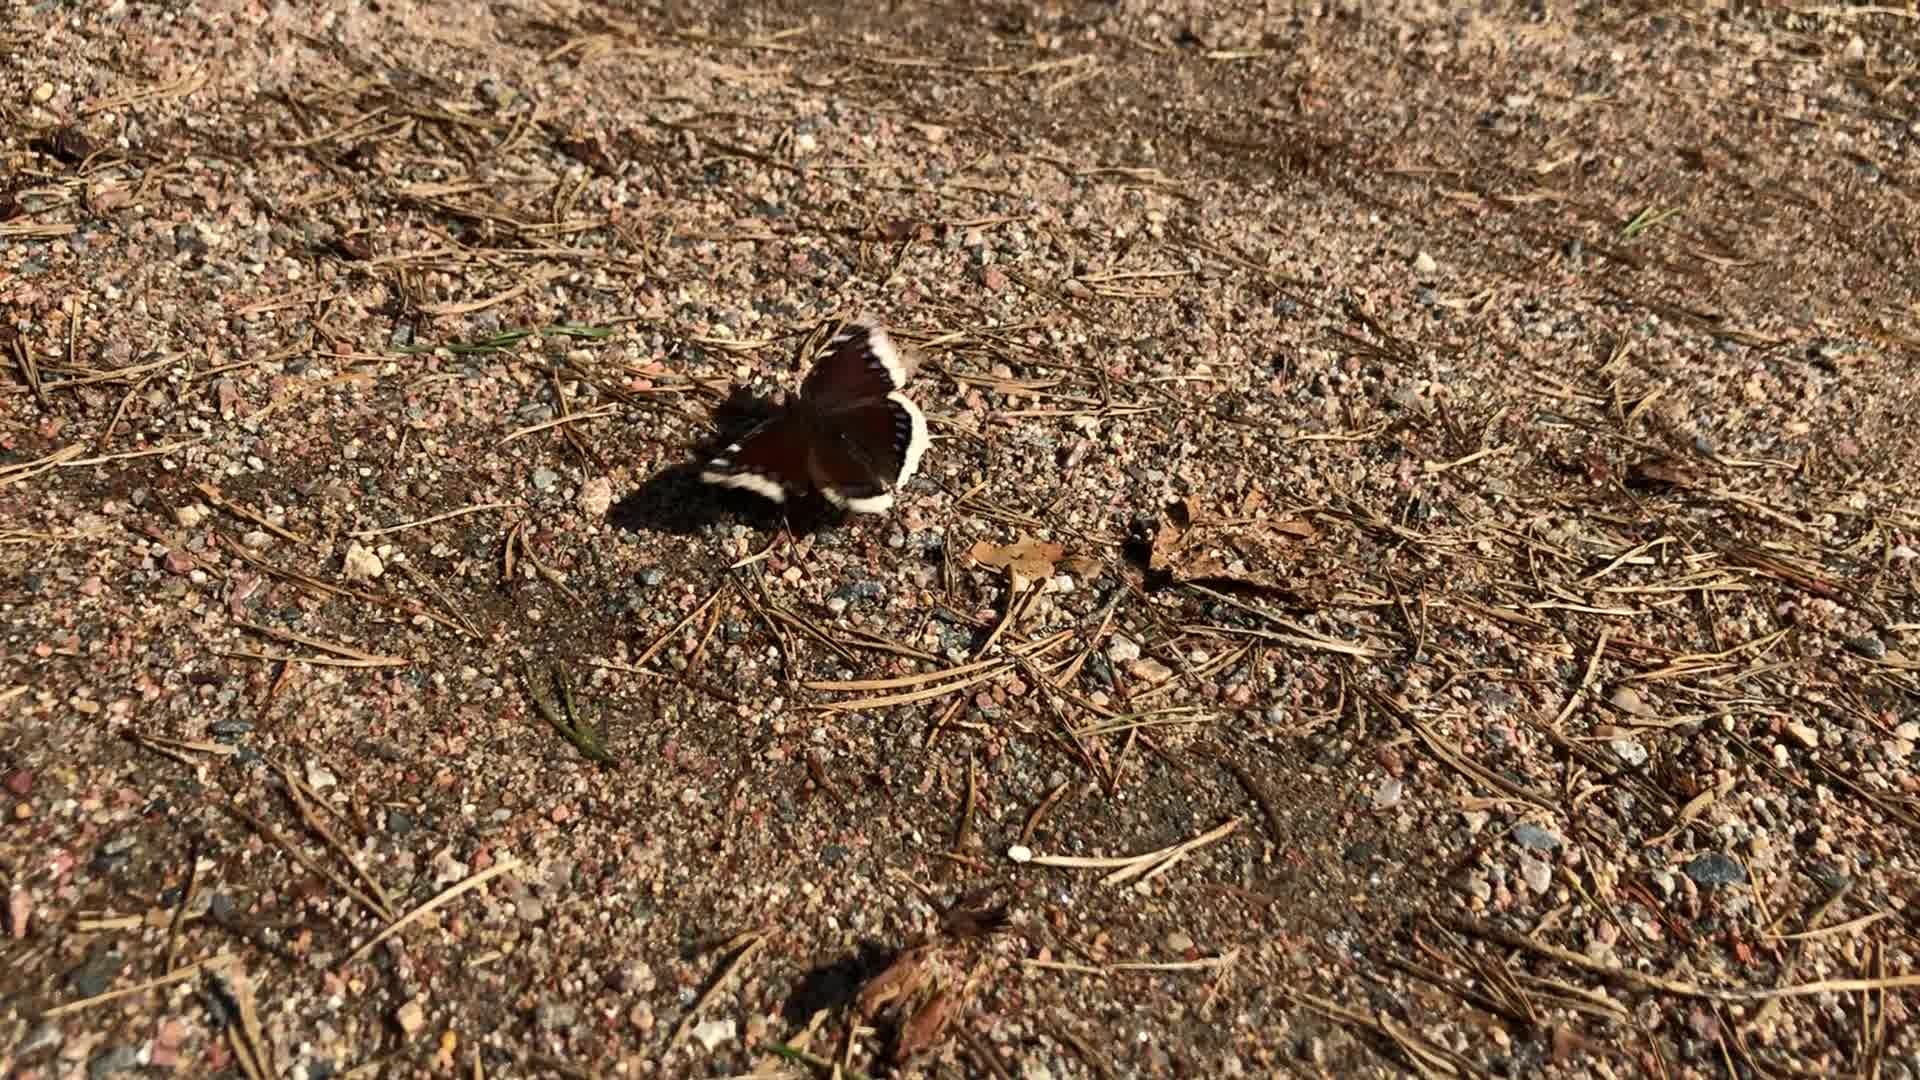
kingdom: Animalia
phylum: Arthropoda
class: Insecta
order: Lepidoptera
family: Nymphalidae
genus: Nymphalis
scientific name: Nymphalis antiopa
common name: Camberwell beauty
